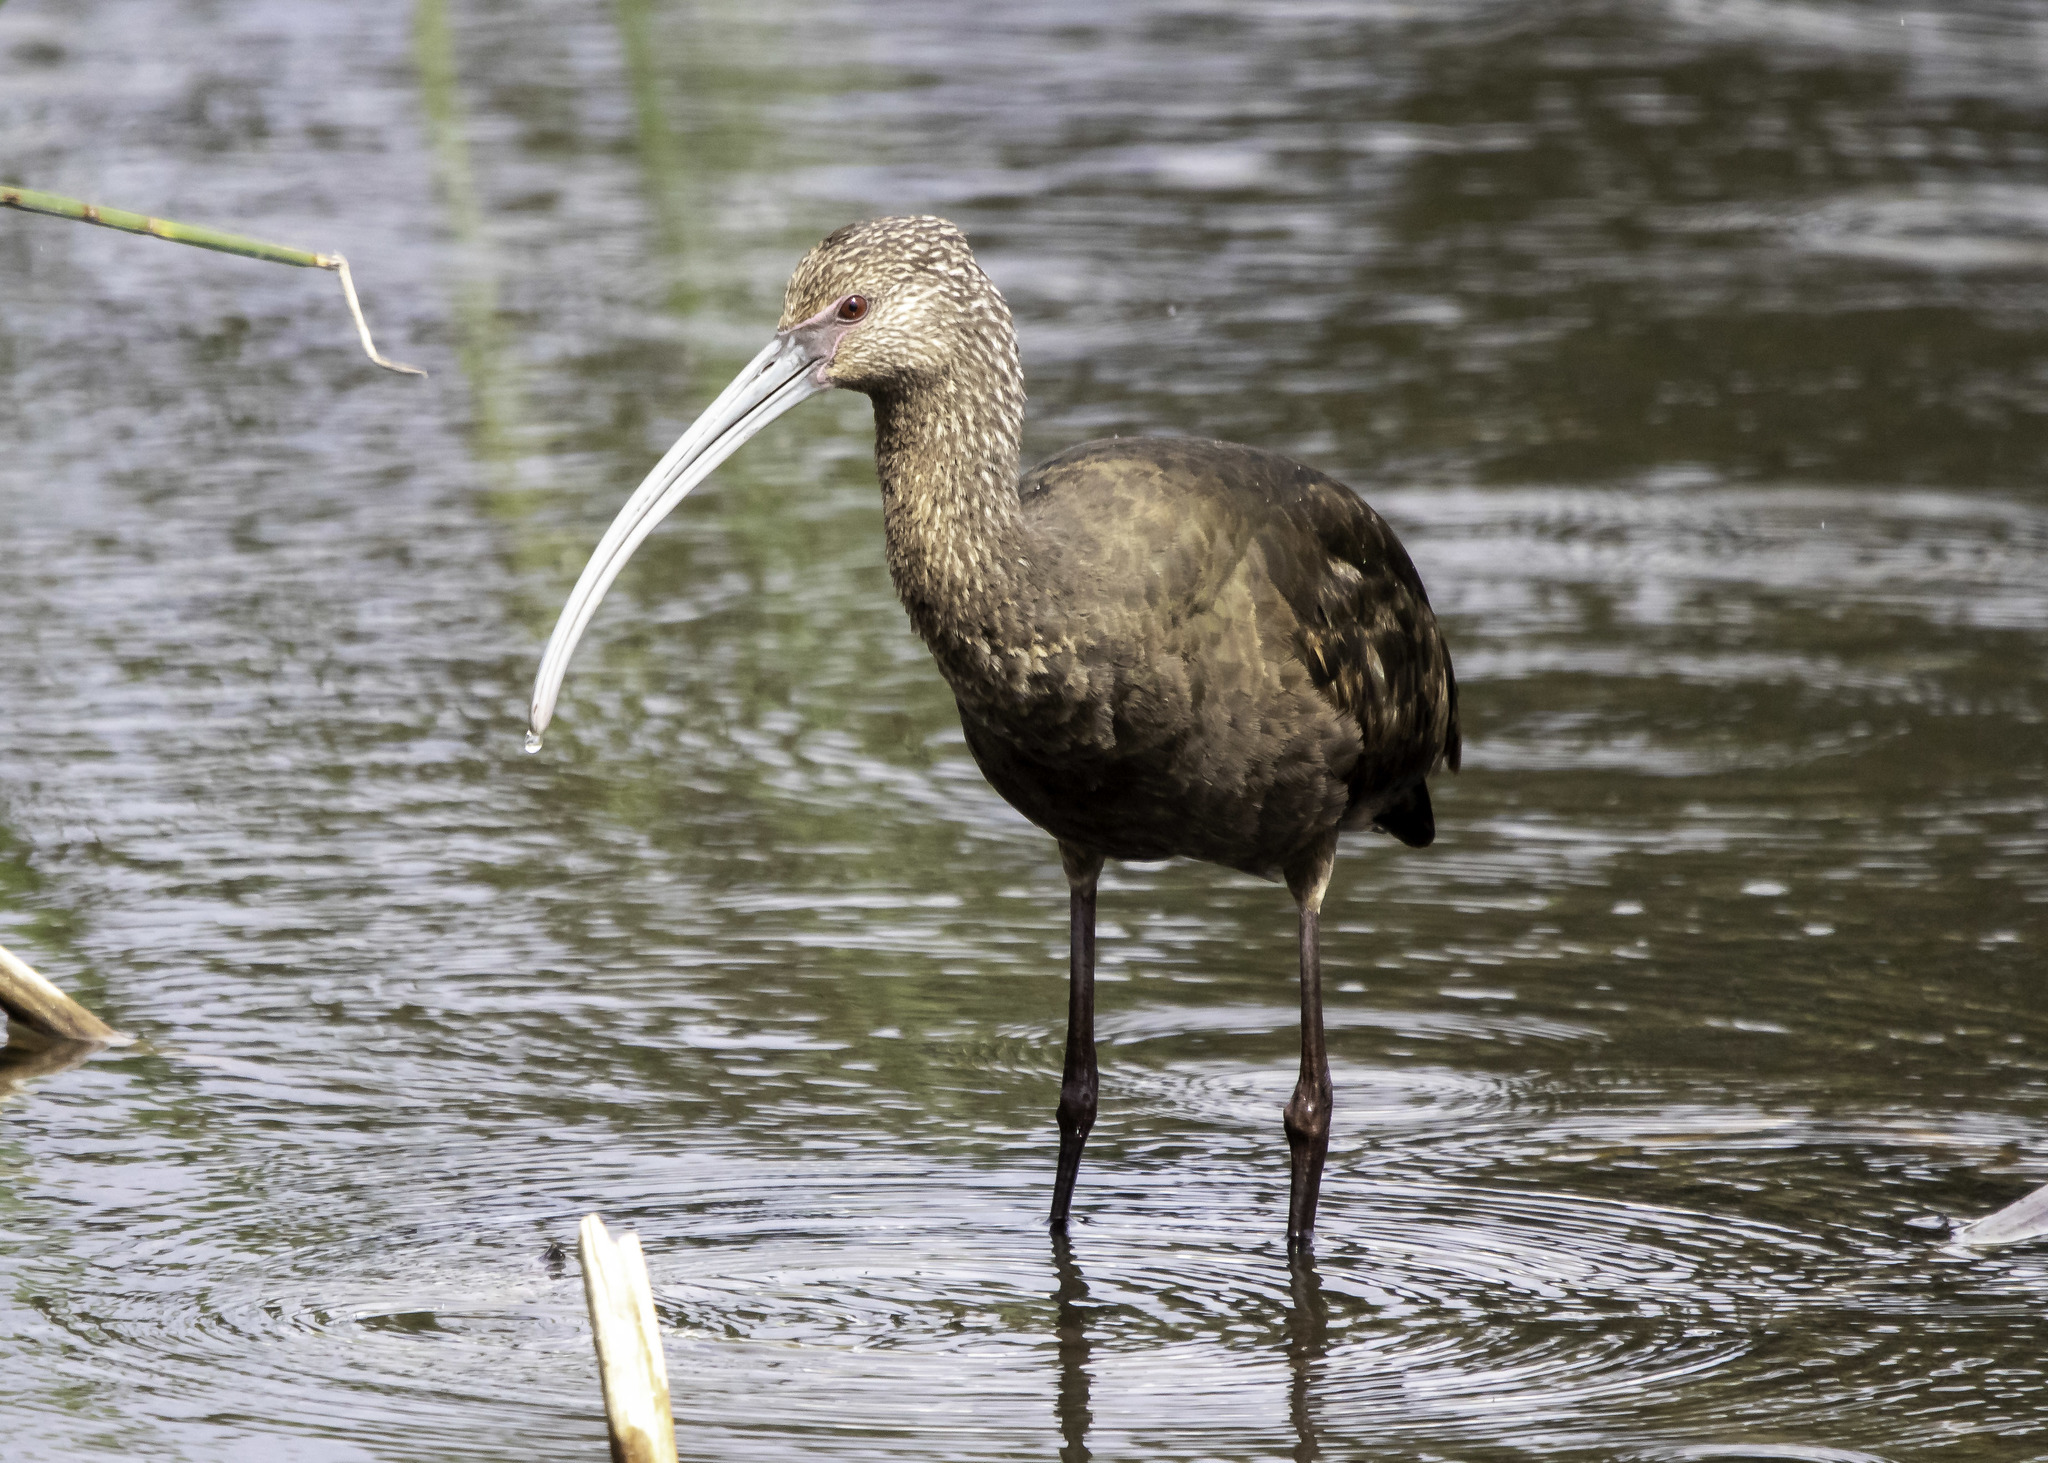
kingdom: Animalia
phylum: Chordata
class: Aves
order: Pelecaniformes
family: Threskiornithidae
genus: Plegadis
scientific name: Plegadis chihi
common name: White-faced ibis
